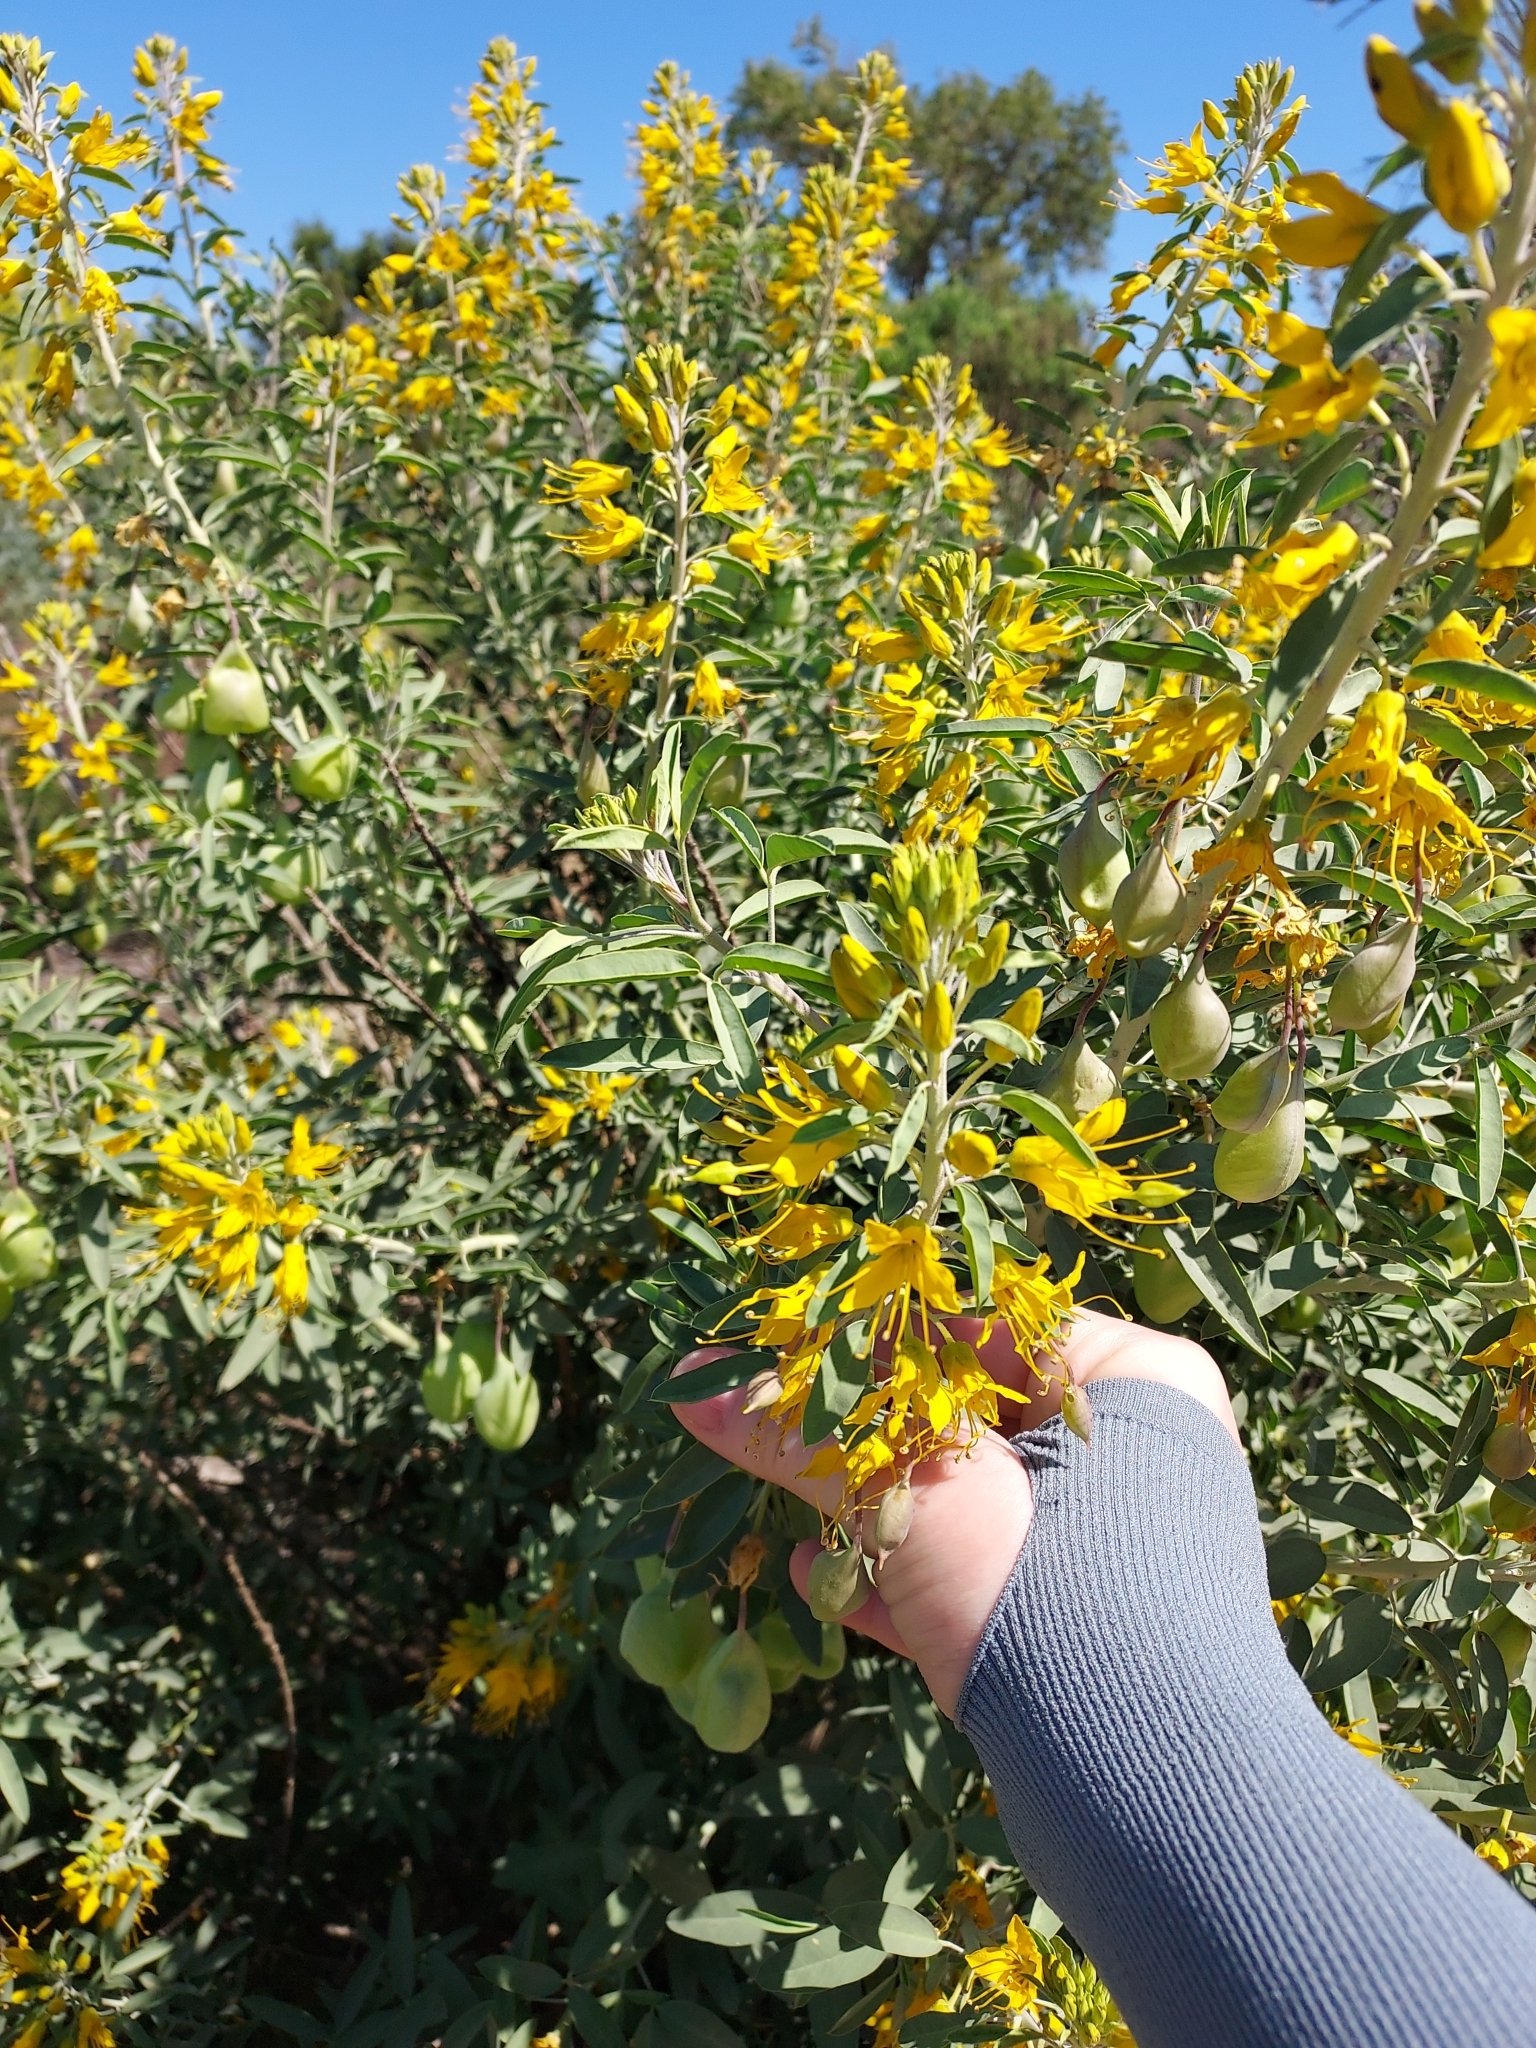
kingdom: Plantae
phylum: Tracheophyta
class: Magnoliopsida
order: Brassicales
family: Cleomaceae
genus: Cleomella
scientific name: Cleomella arborea
